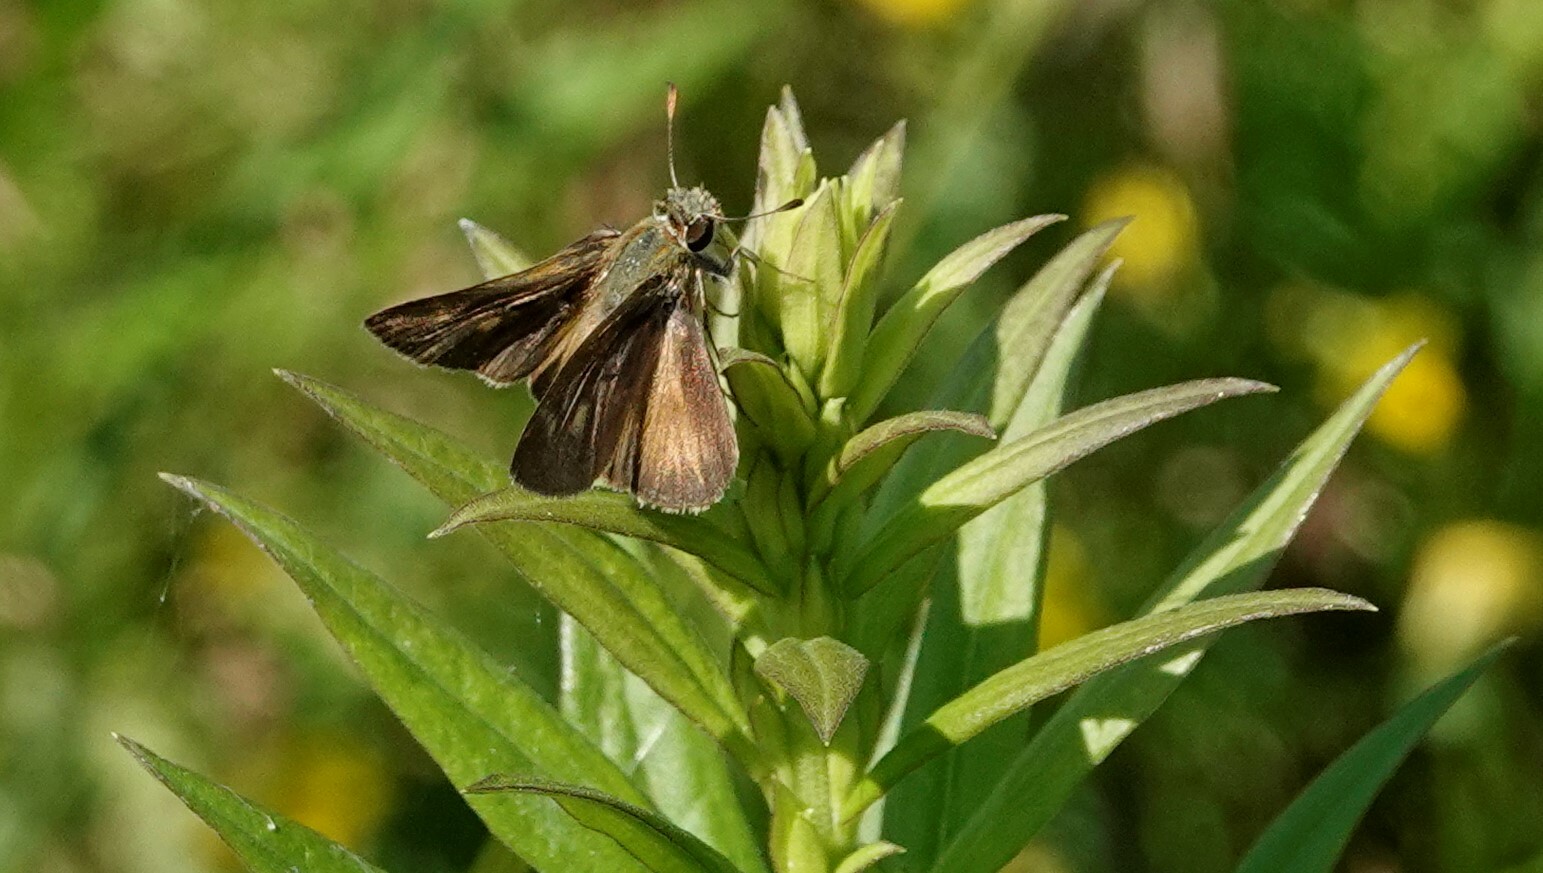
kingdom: Animalia
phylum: Arthropoda
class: Insecta
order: Lepidoptera
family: Hesperiidae
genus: Polites
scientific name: Polites egeremet
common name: Northern broken-dash
